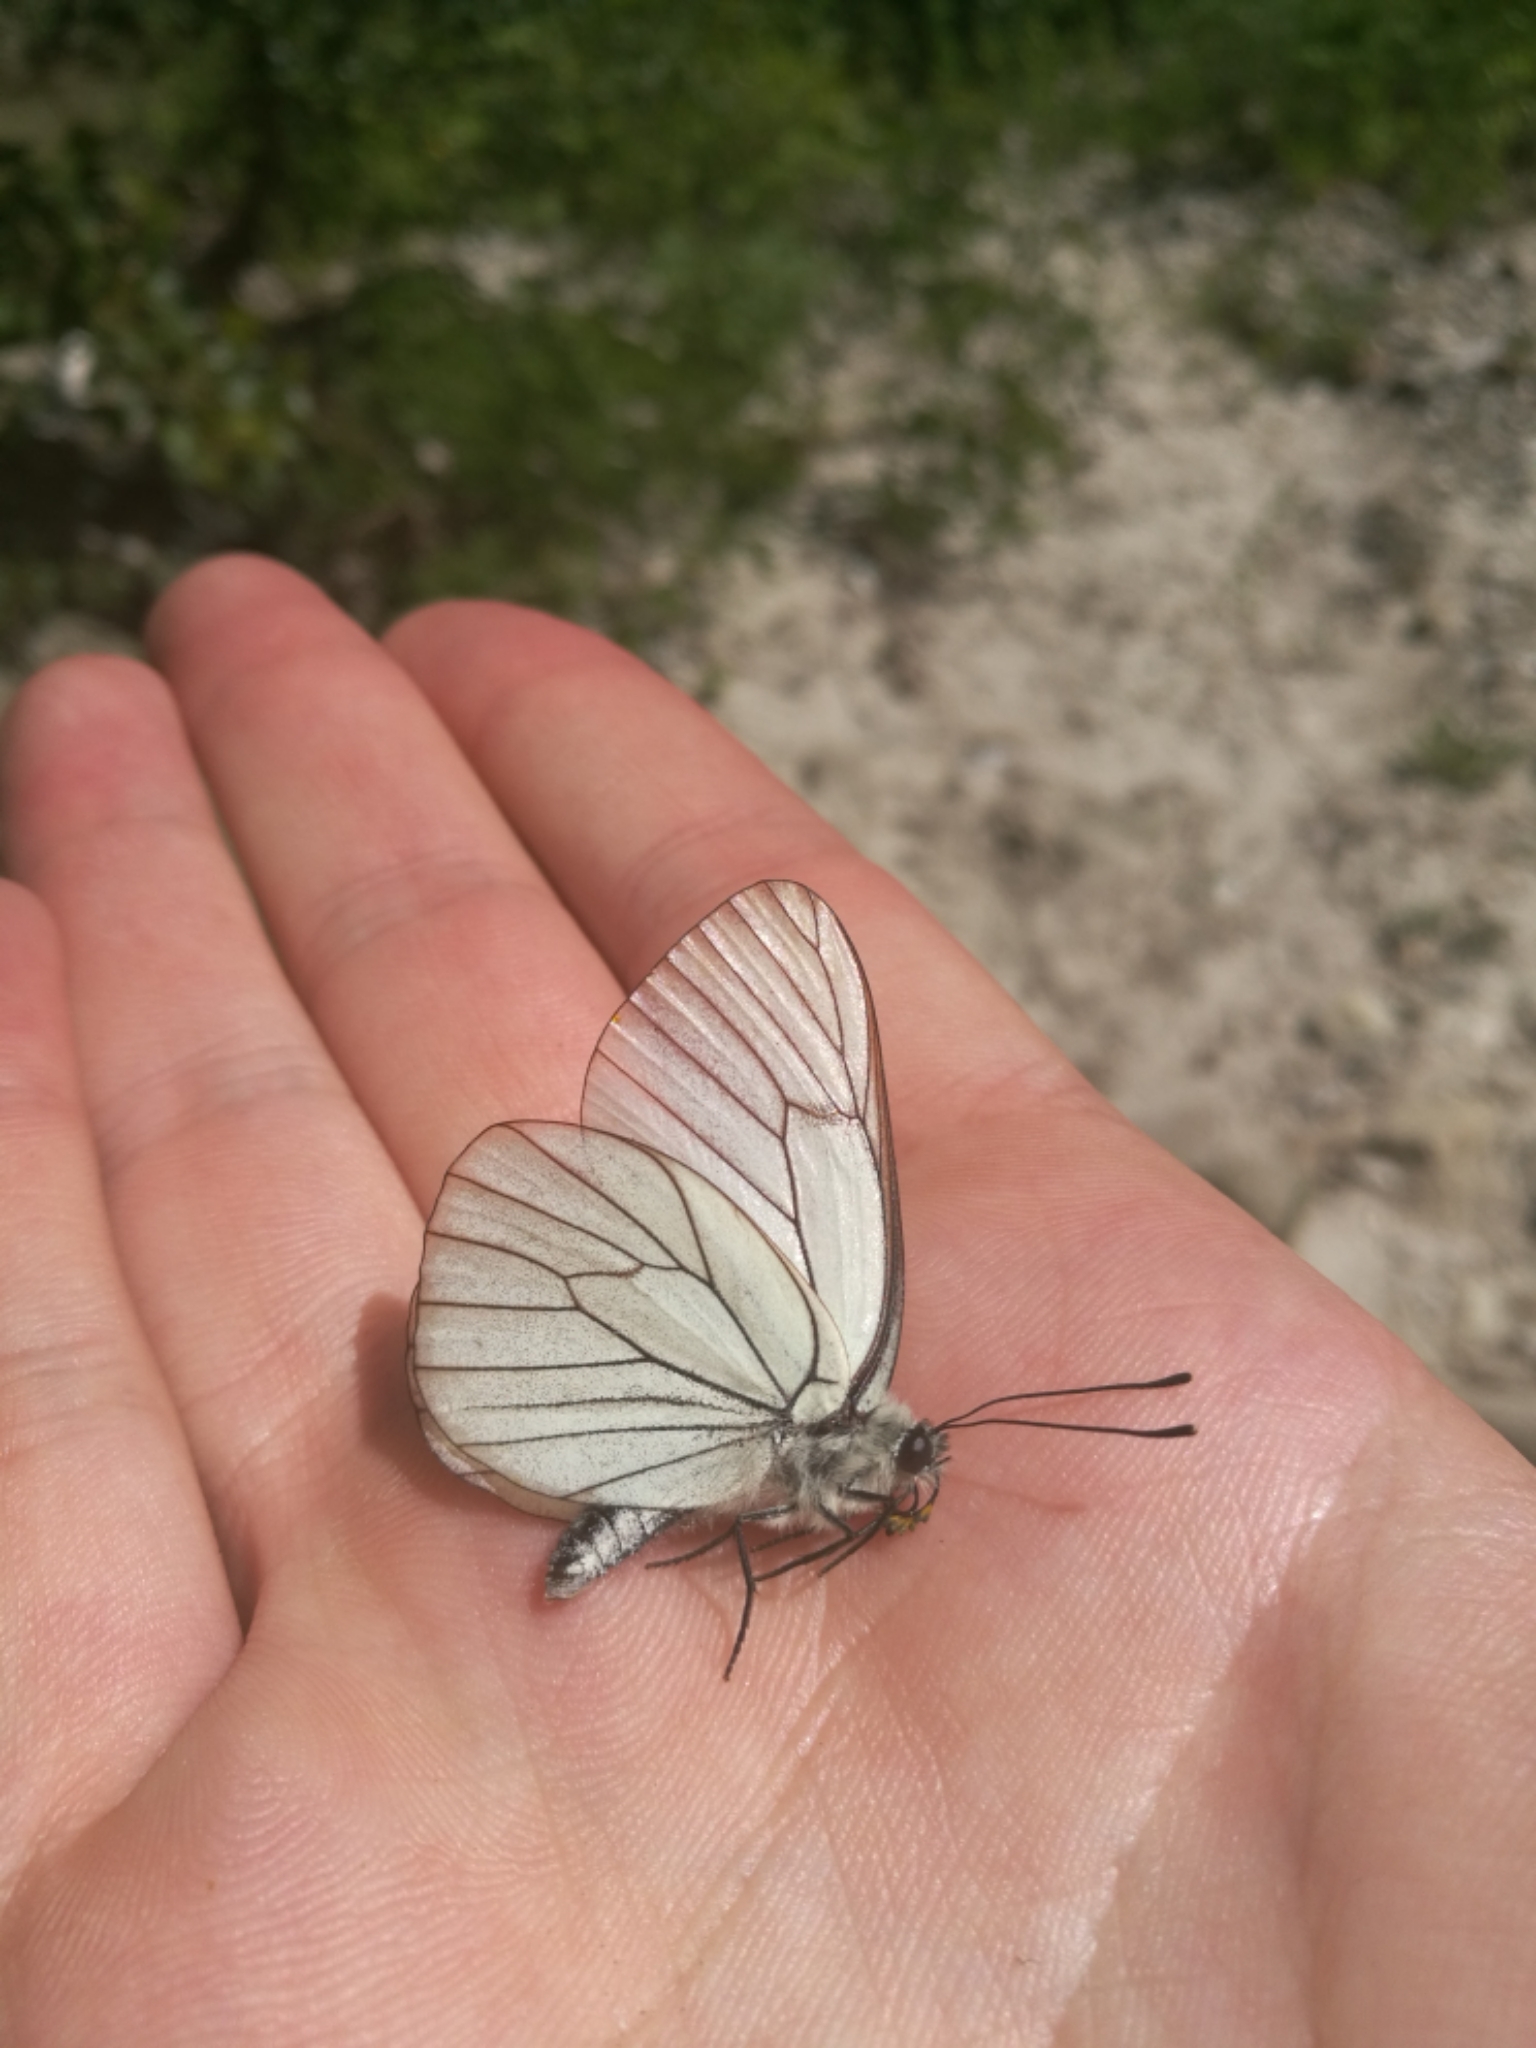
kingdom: Animalia
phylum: Arthropoda
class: Insecta
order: Lepidoptera
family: Pieridae
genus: Aporia
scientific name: Aporia crataegi
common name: Black-veined white
